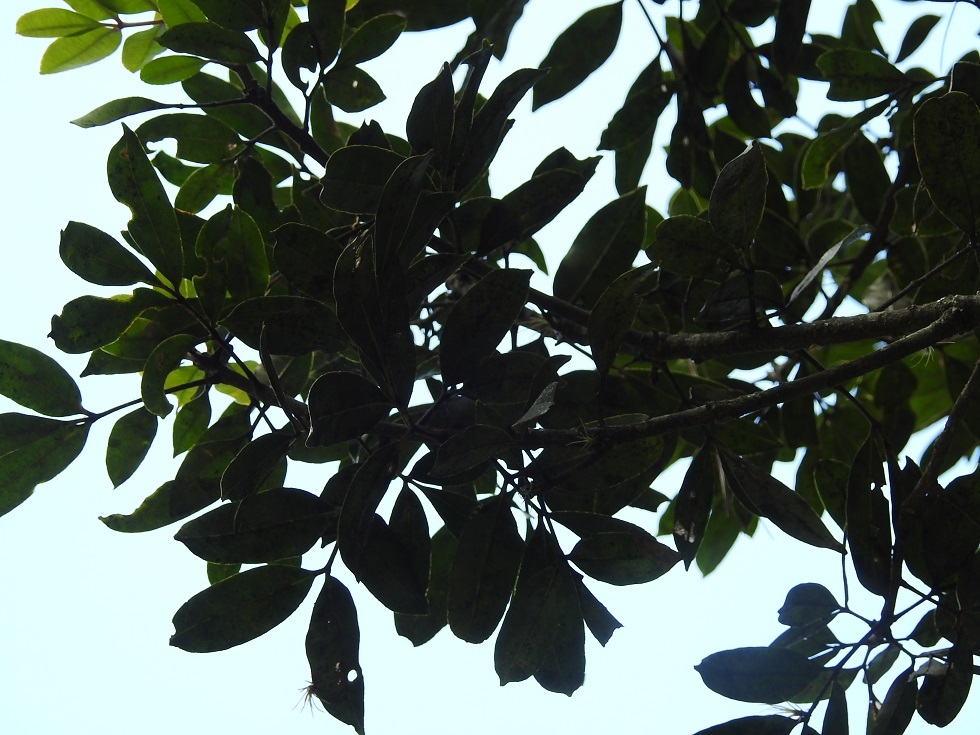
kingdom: Plantae
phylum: Tracheophyta
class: Magnoliopsida
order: Sapindales
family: Rutaceae
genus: Zanthoxylum
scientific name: Zanthoxylum melanostictum
